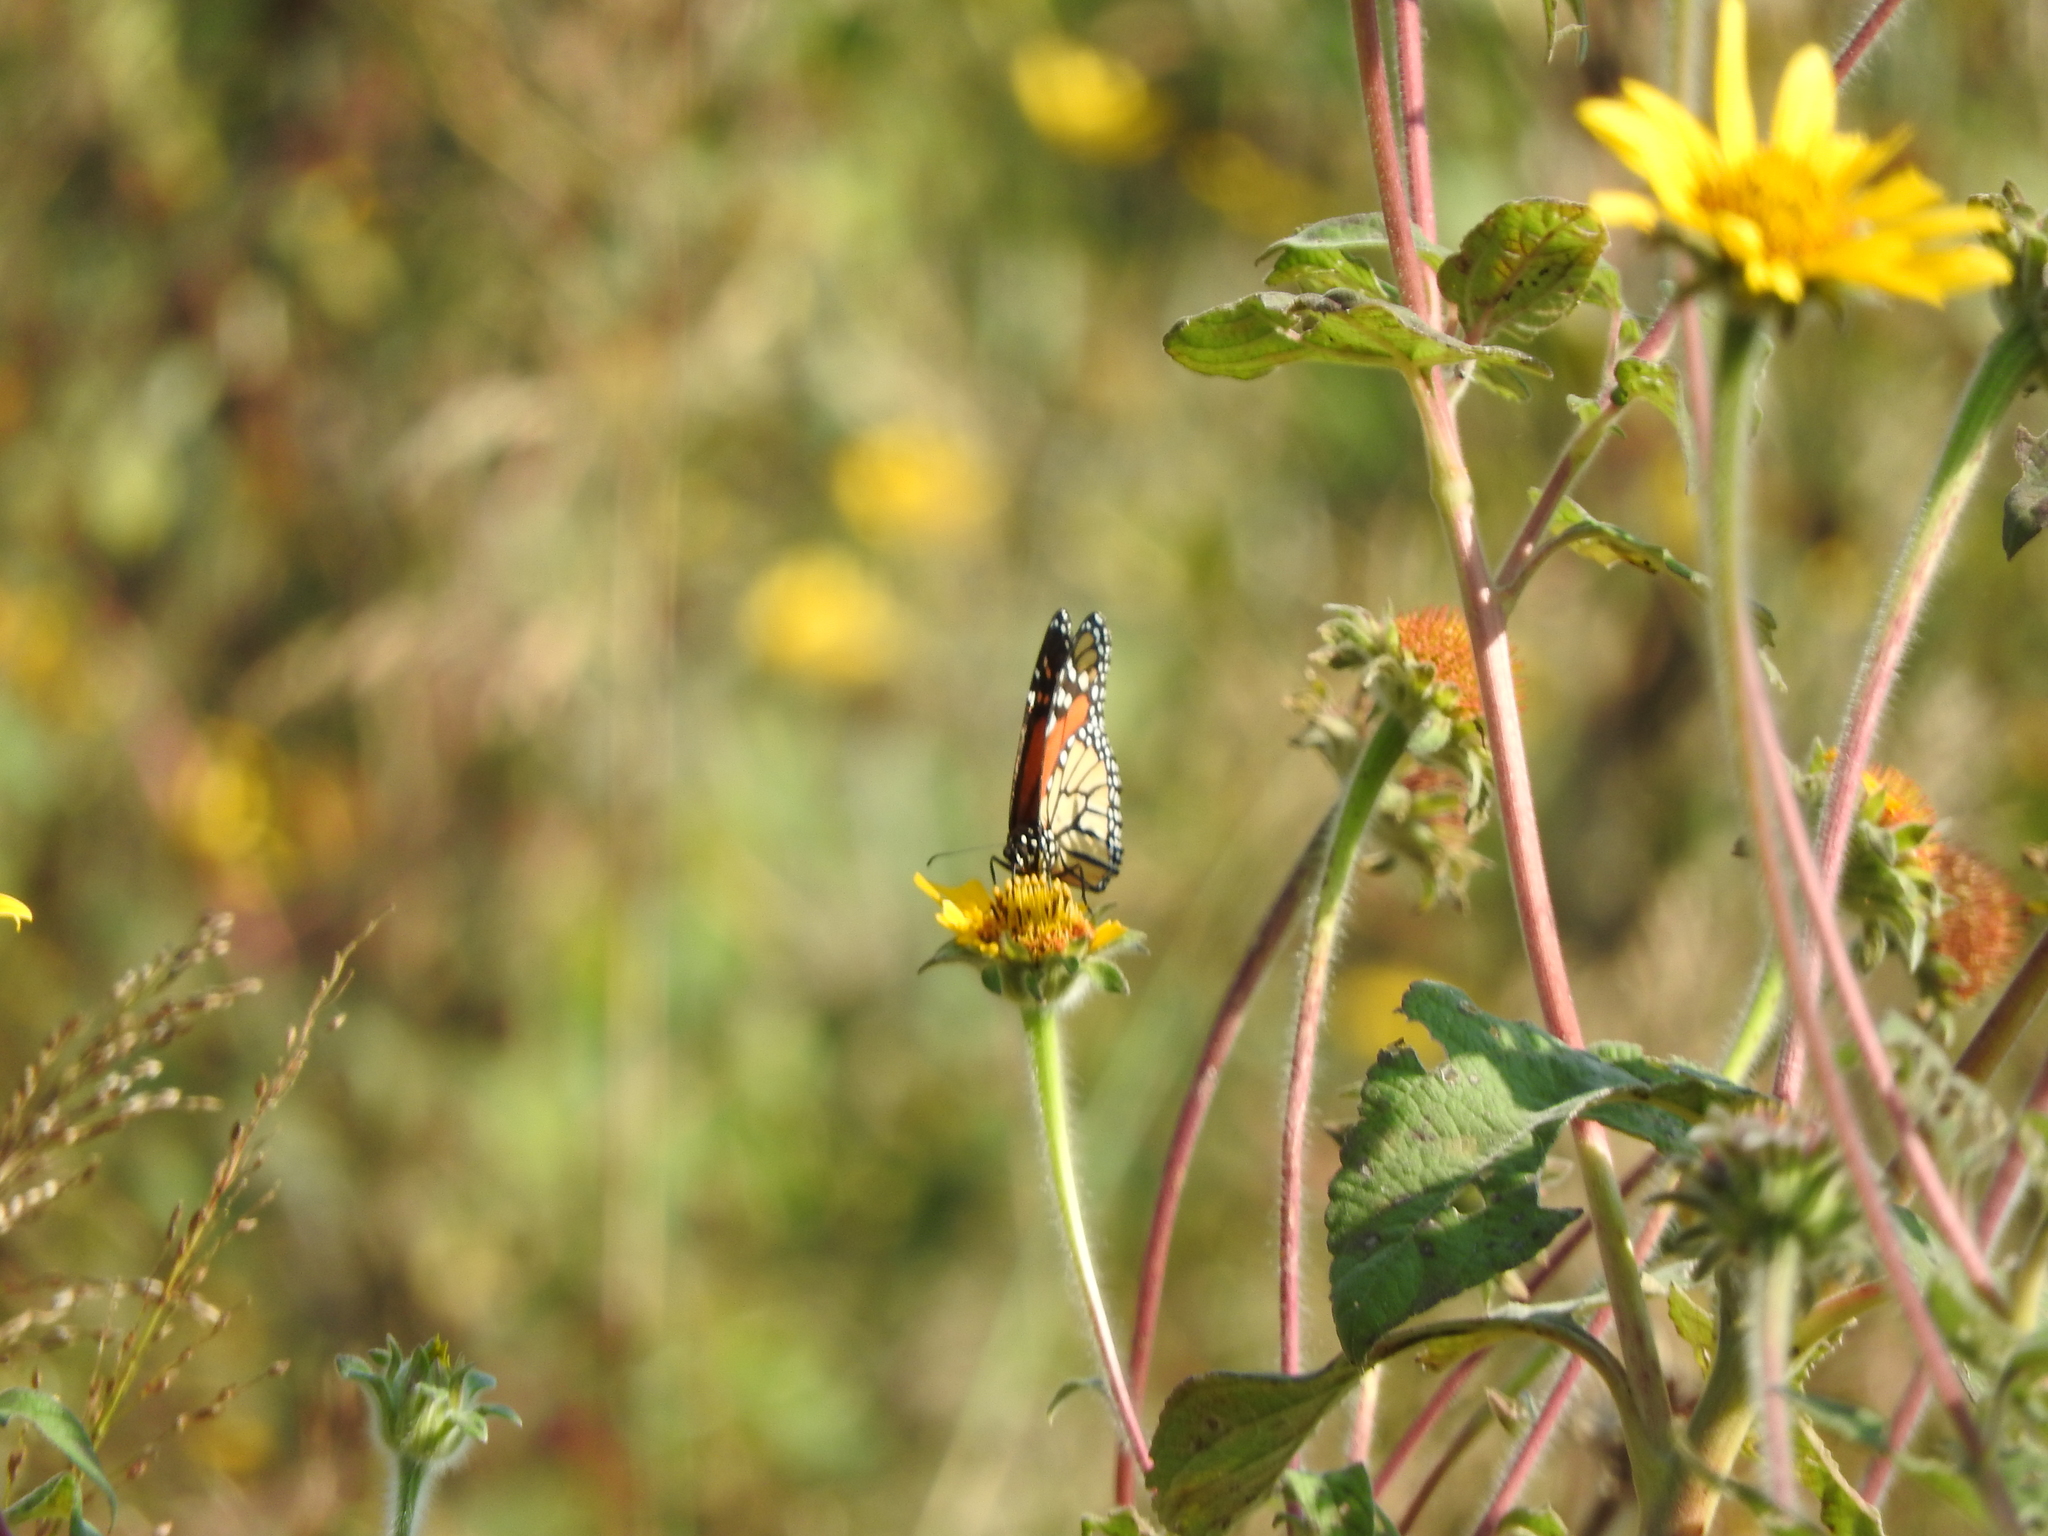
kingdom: Animalia
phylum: Arthropoda
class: Insecta
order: Lepidoptera
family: Nymphalidae
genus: Danaus
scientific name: Danaus plexippus
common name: Monarch
